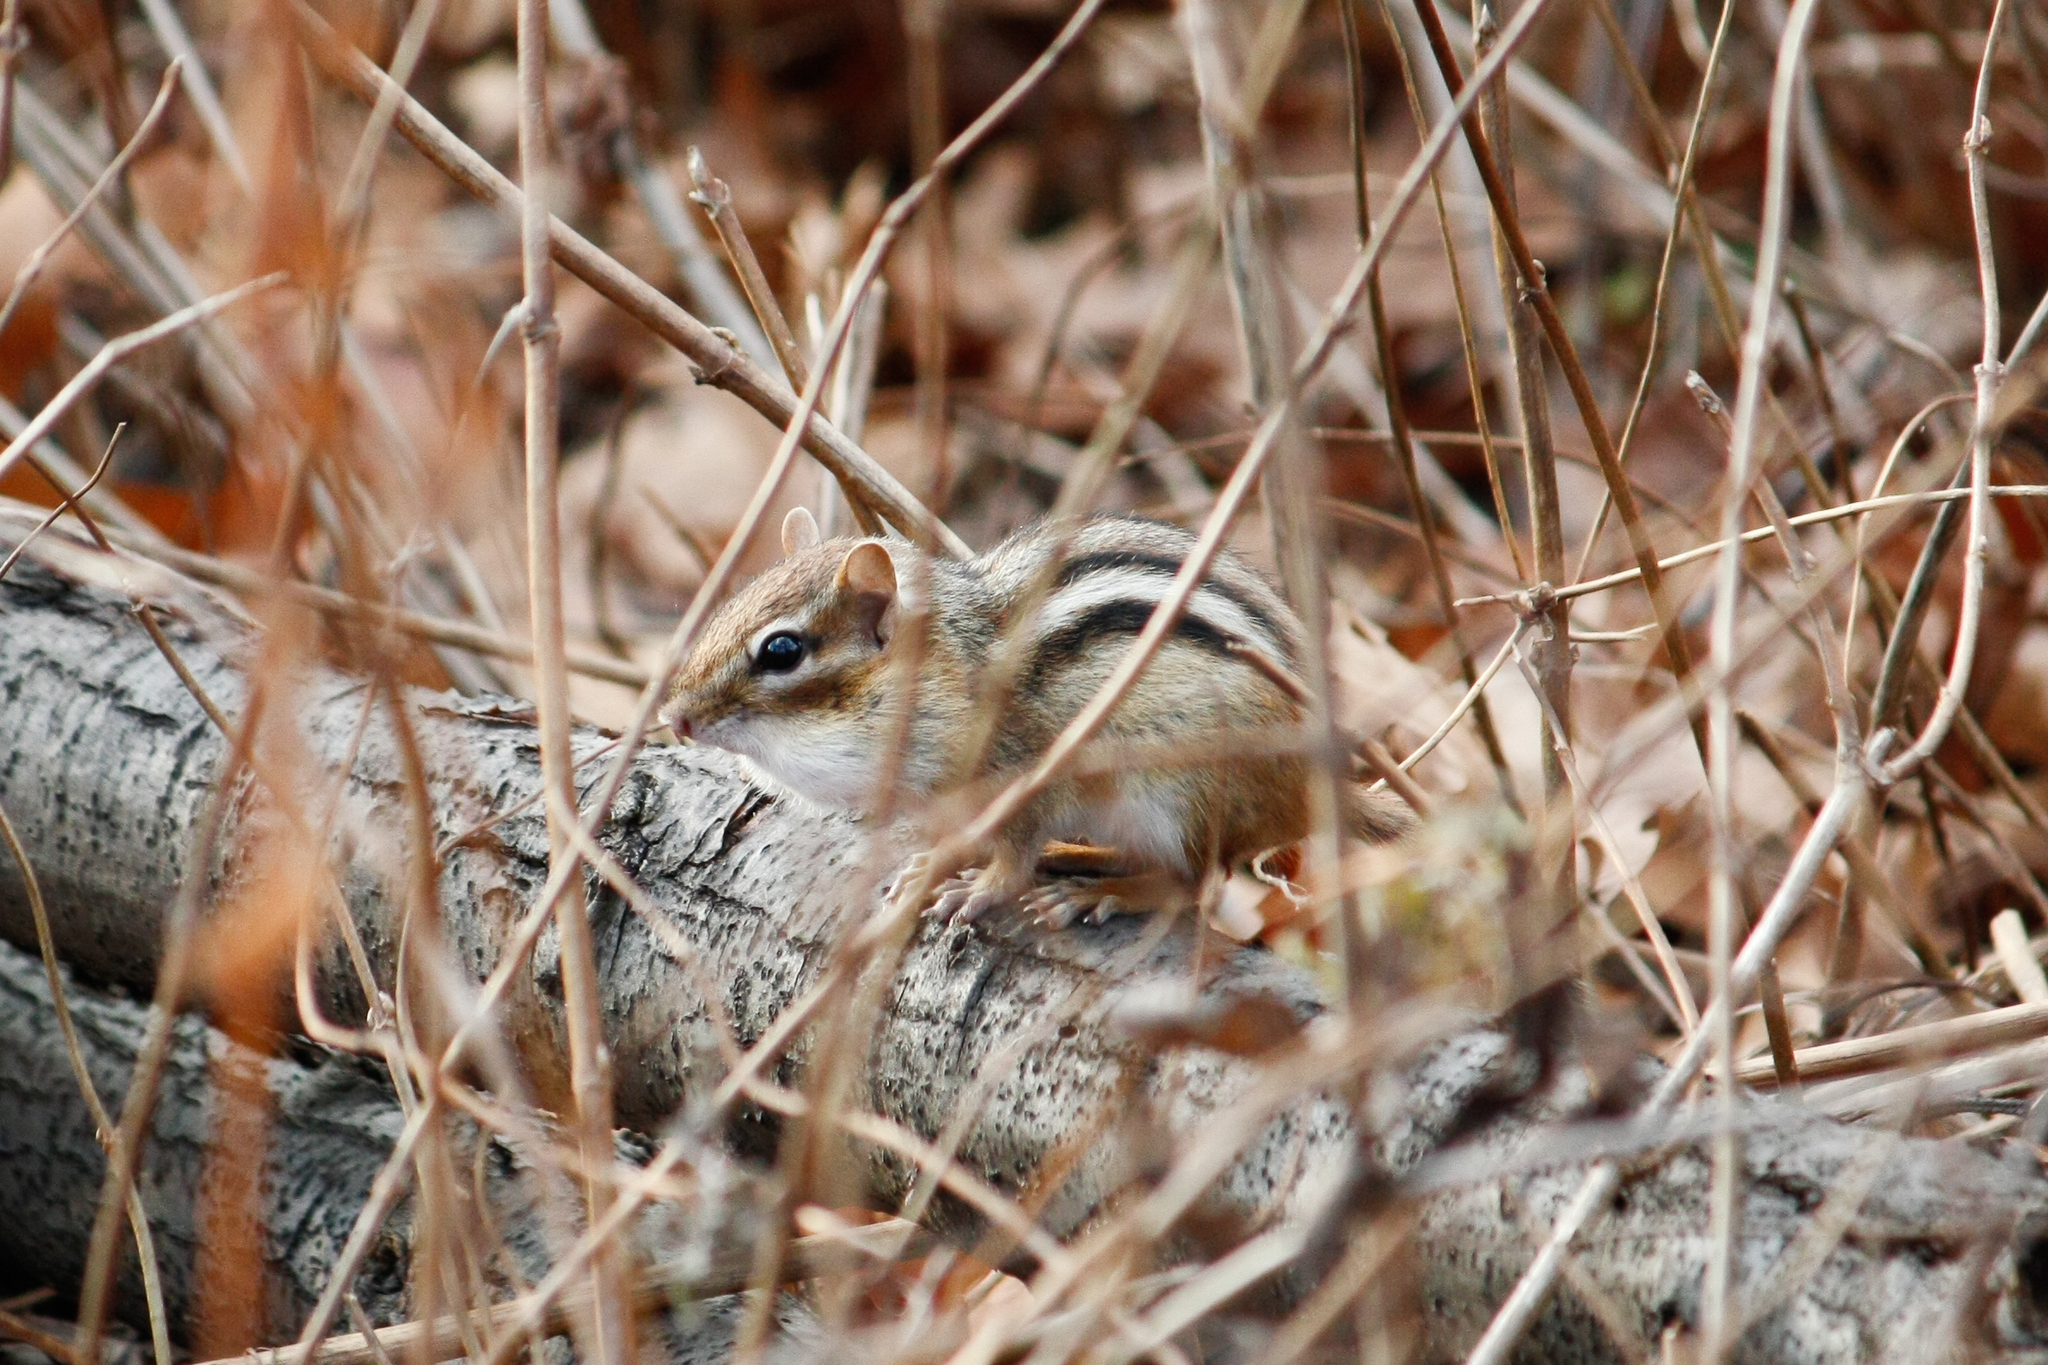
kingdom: Animalia
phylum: Chordata
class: Mammalia
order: Rodentia
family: Sciuridae
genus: Tamias
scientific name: Tamias striatus
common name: Eastern chipmunk
